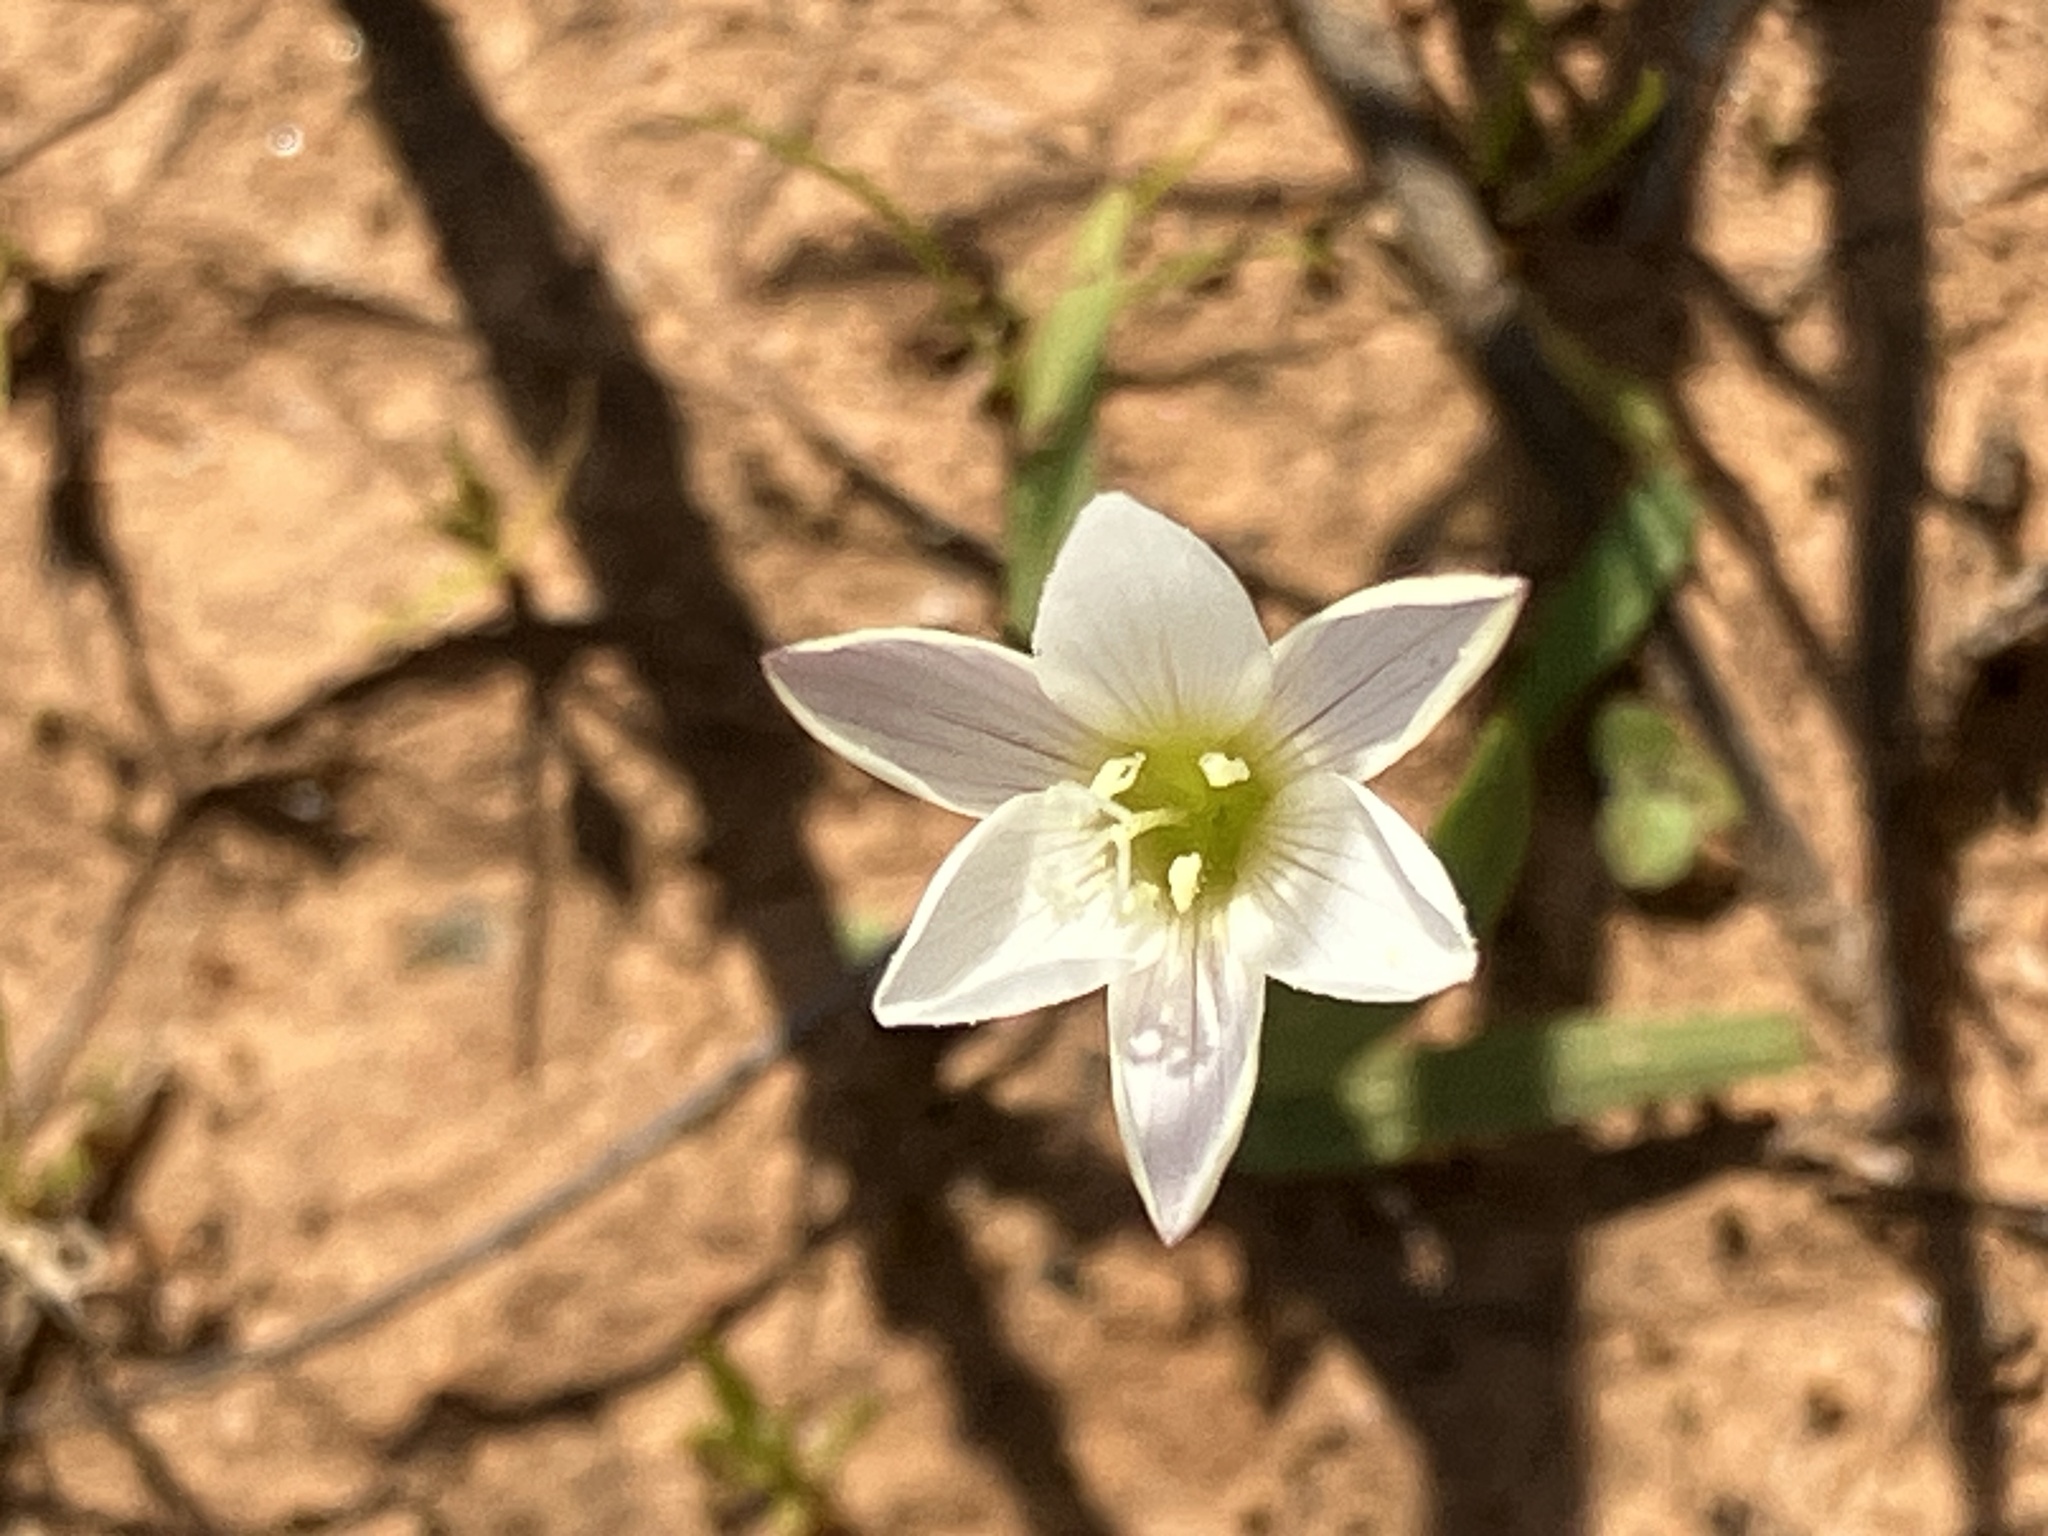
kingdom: Plantae
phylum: Tracheophyta
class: Liliopsida
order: Asparagales
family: Iridaceae
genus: Geissorhiza
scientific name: Geissorhiza nana
